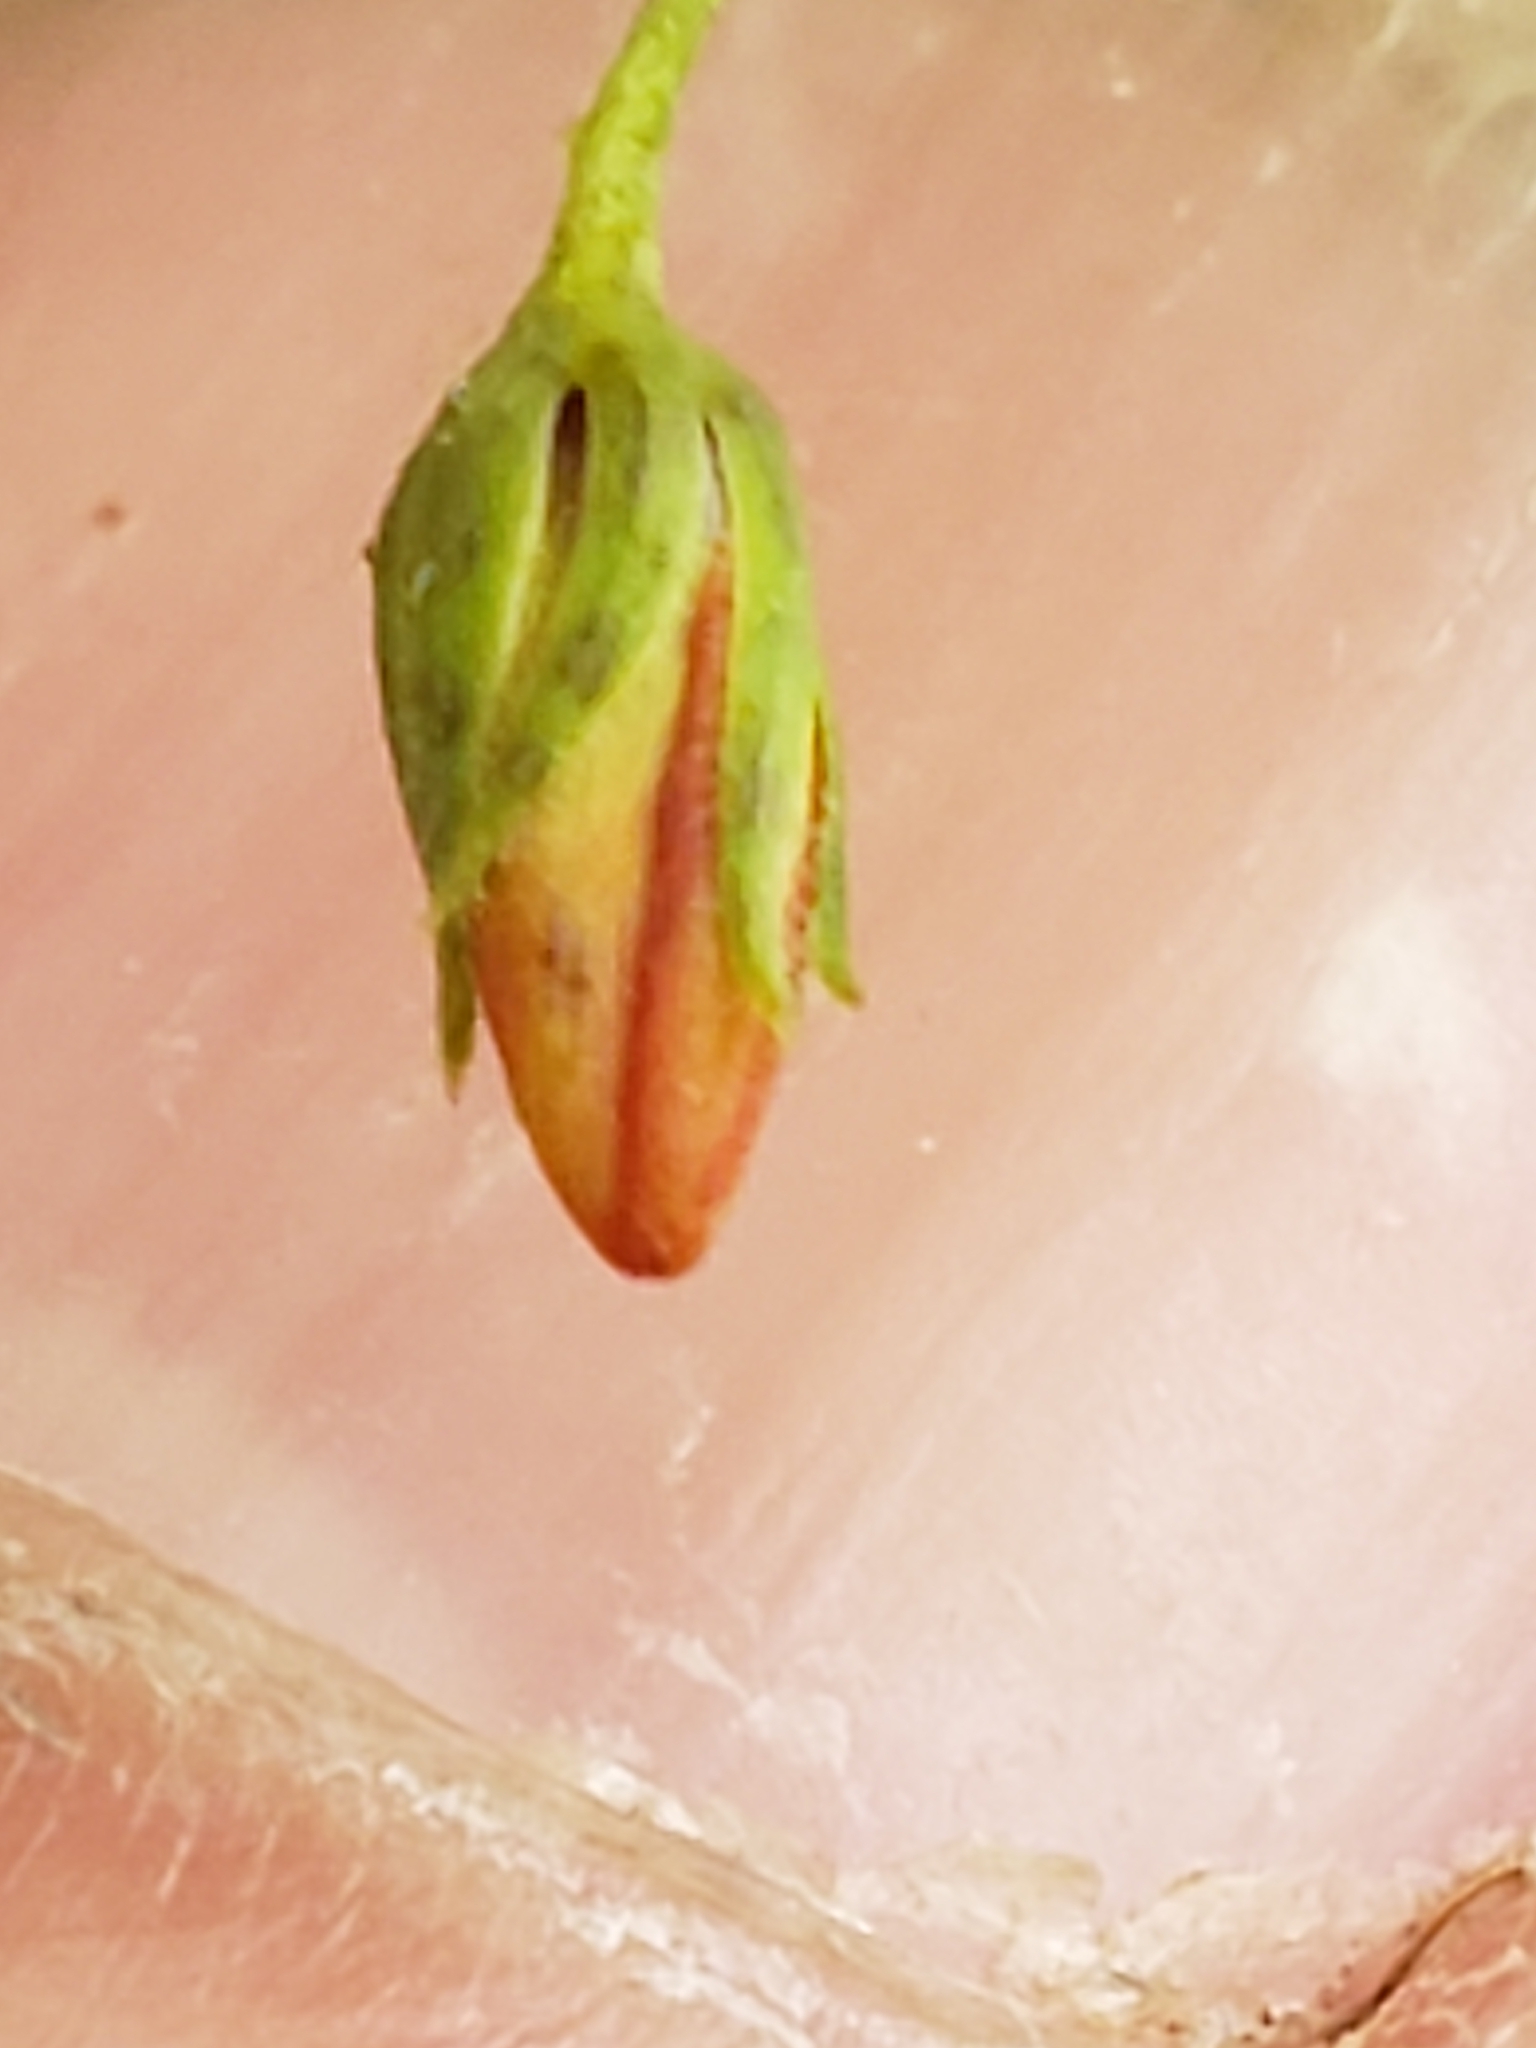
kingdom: Plantae
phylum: Tracheophyta
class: Magnoliopsida
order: Ericales
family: Primulaceae
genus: Lysimachia
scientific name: Lysimachia quadrifolia
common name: Whorled loosestrife
